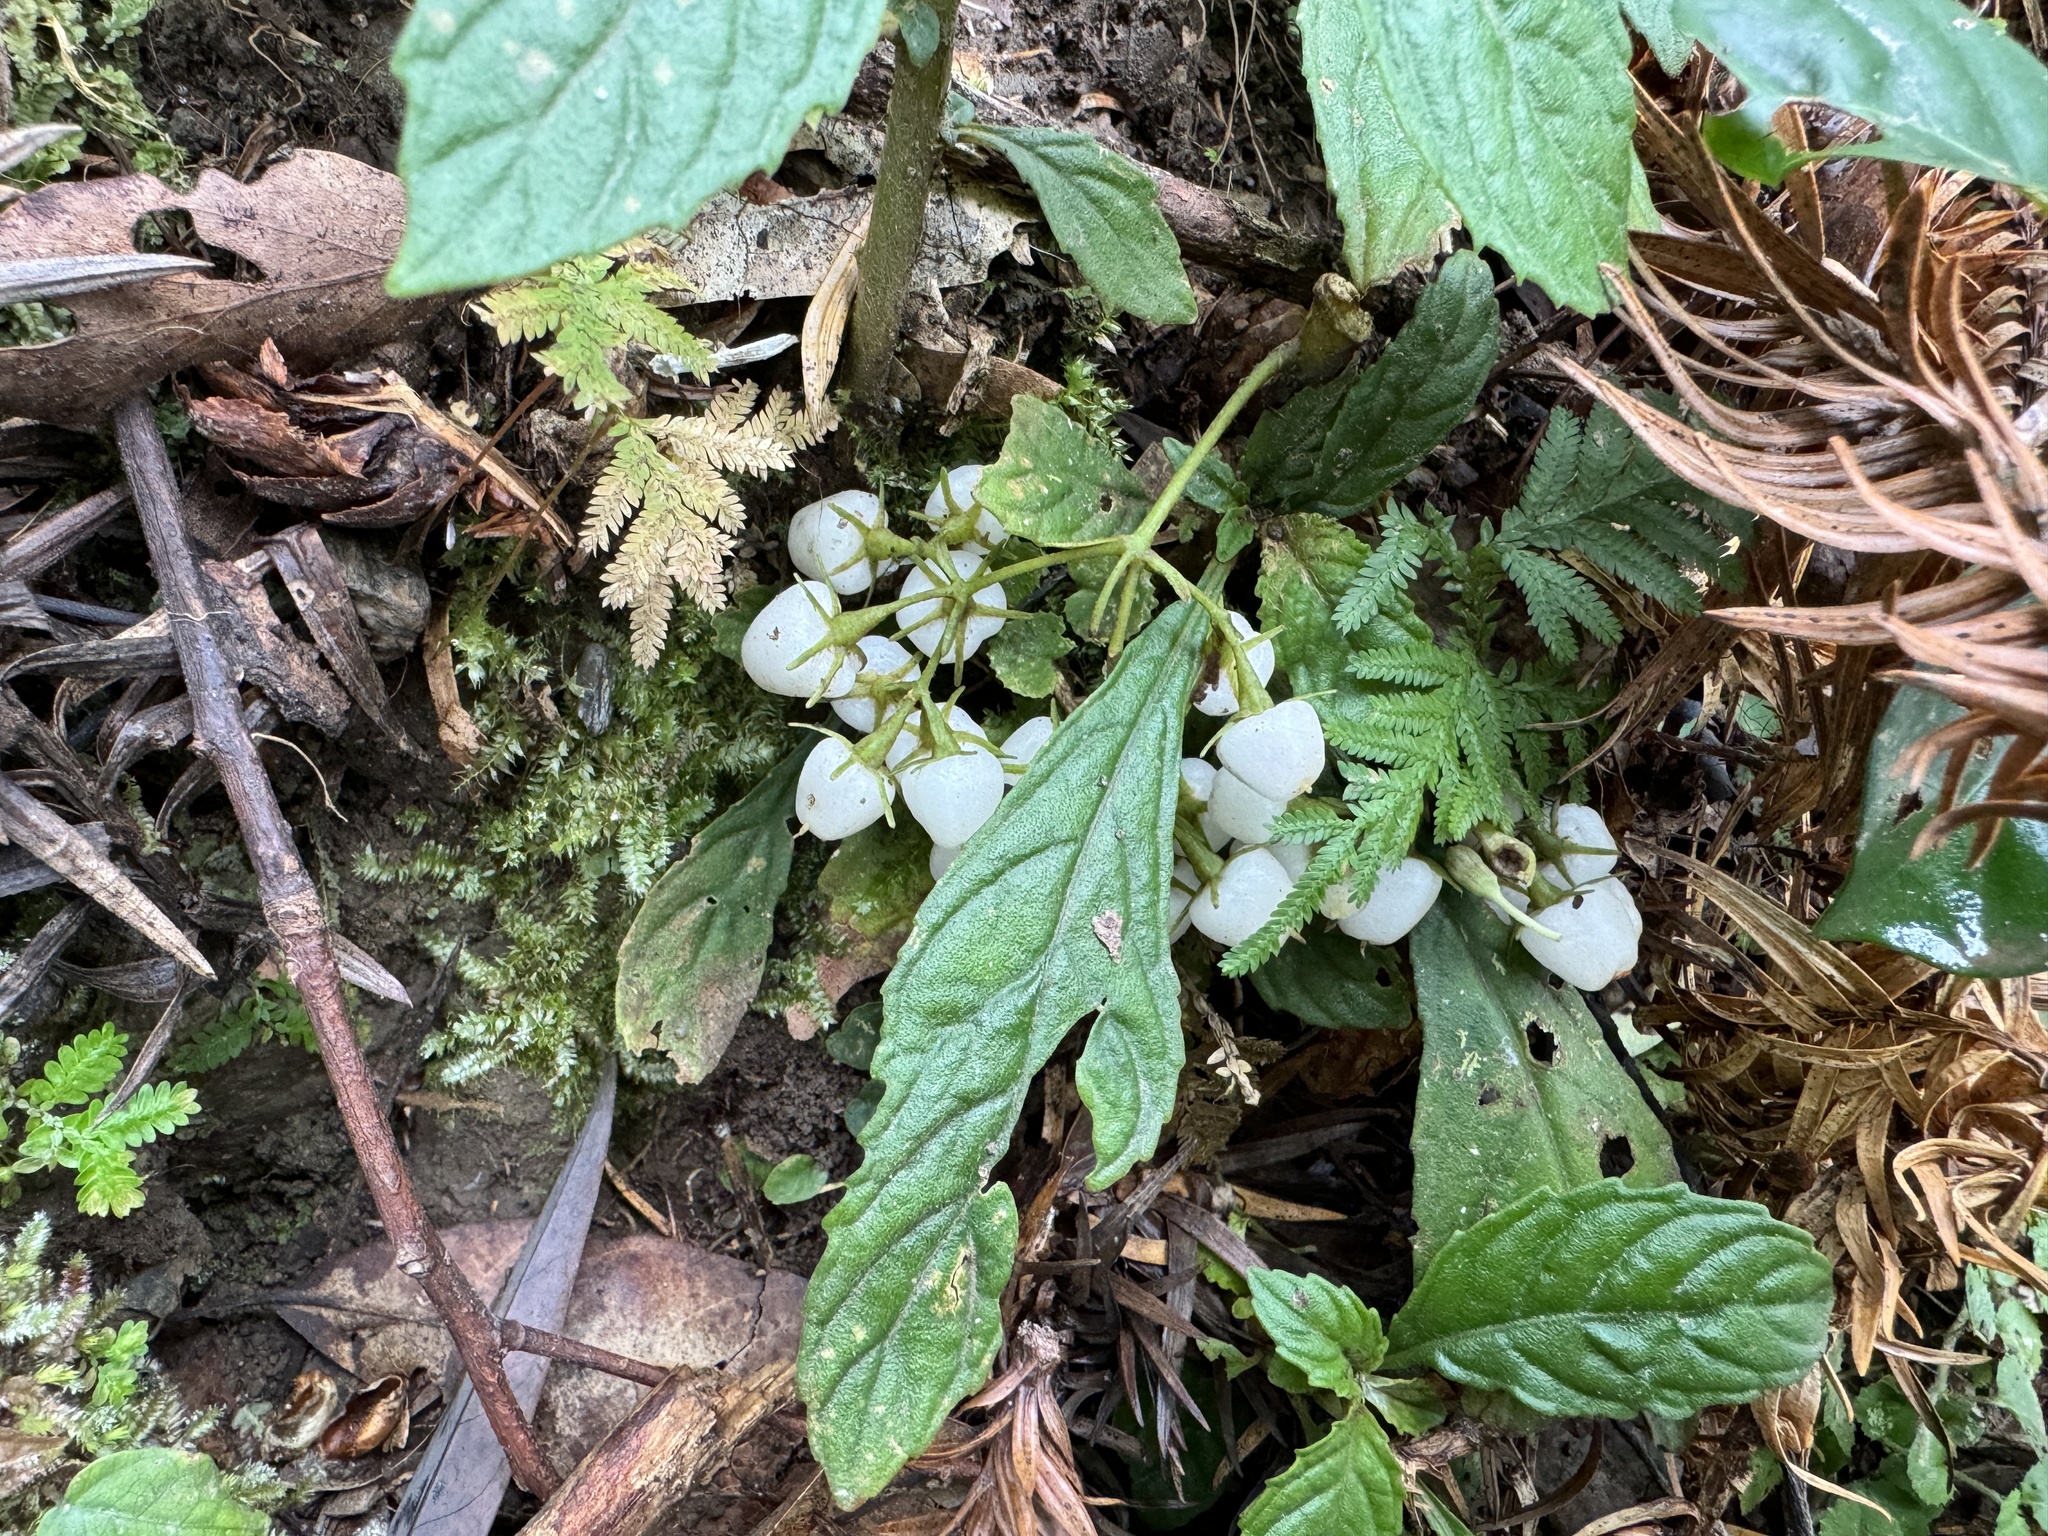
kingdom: Plantae
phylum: Tracheophyta
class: Magnoliopsida
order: Lamiales
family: Gesneriaceae
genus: Rhynchotechum
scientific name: Rhynchotechum discolor
